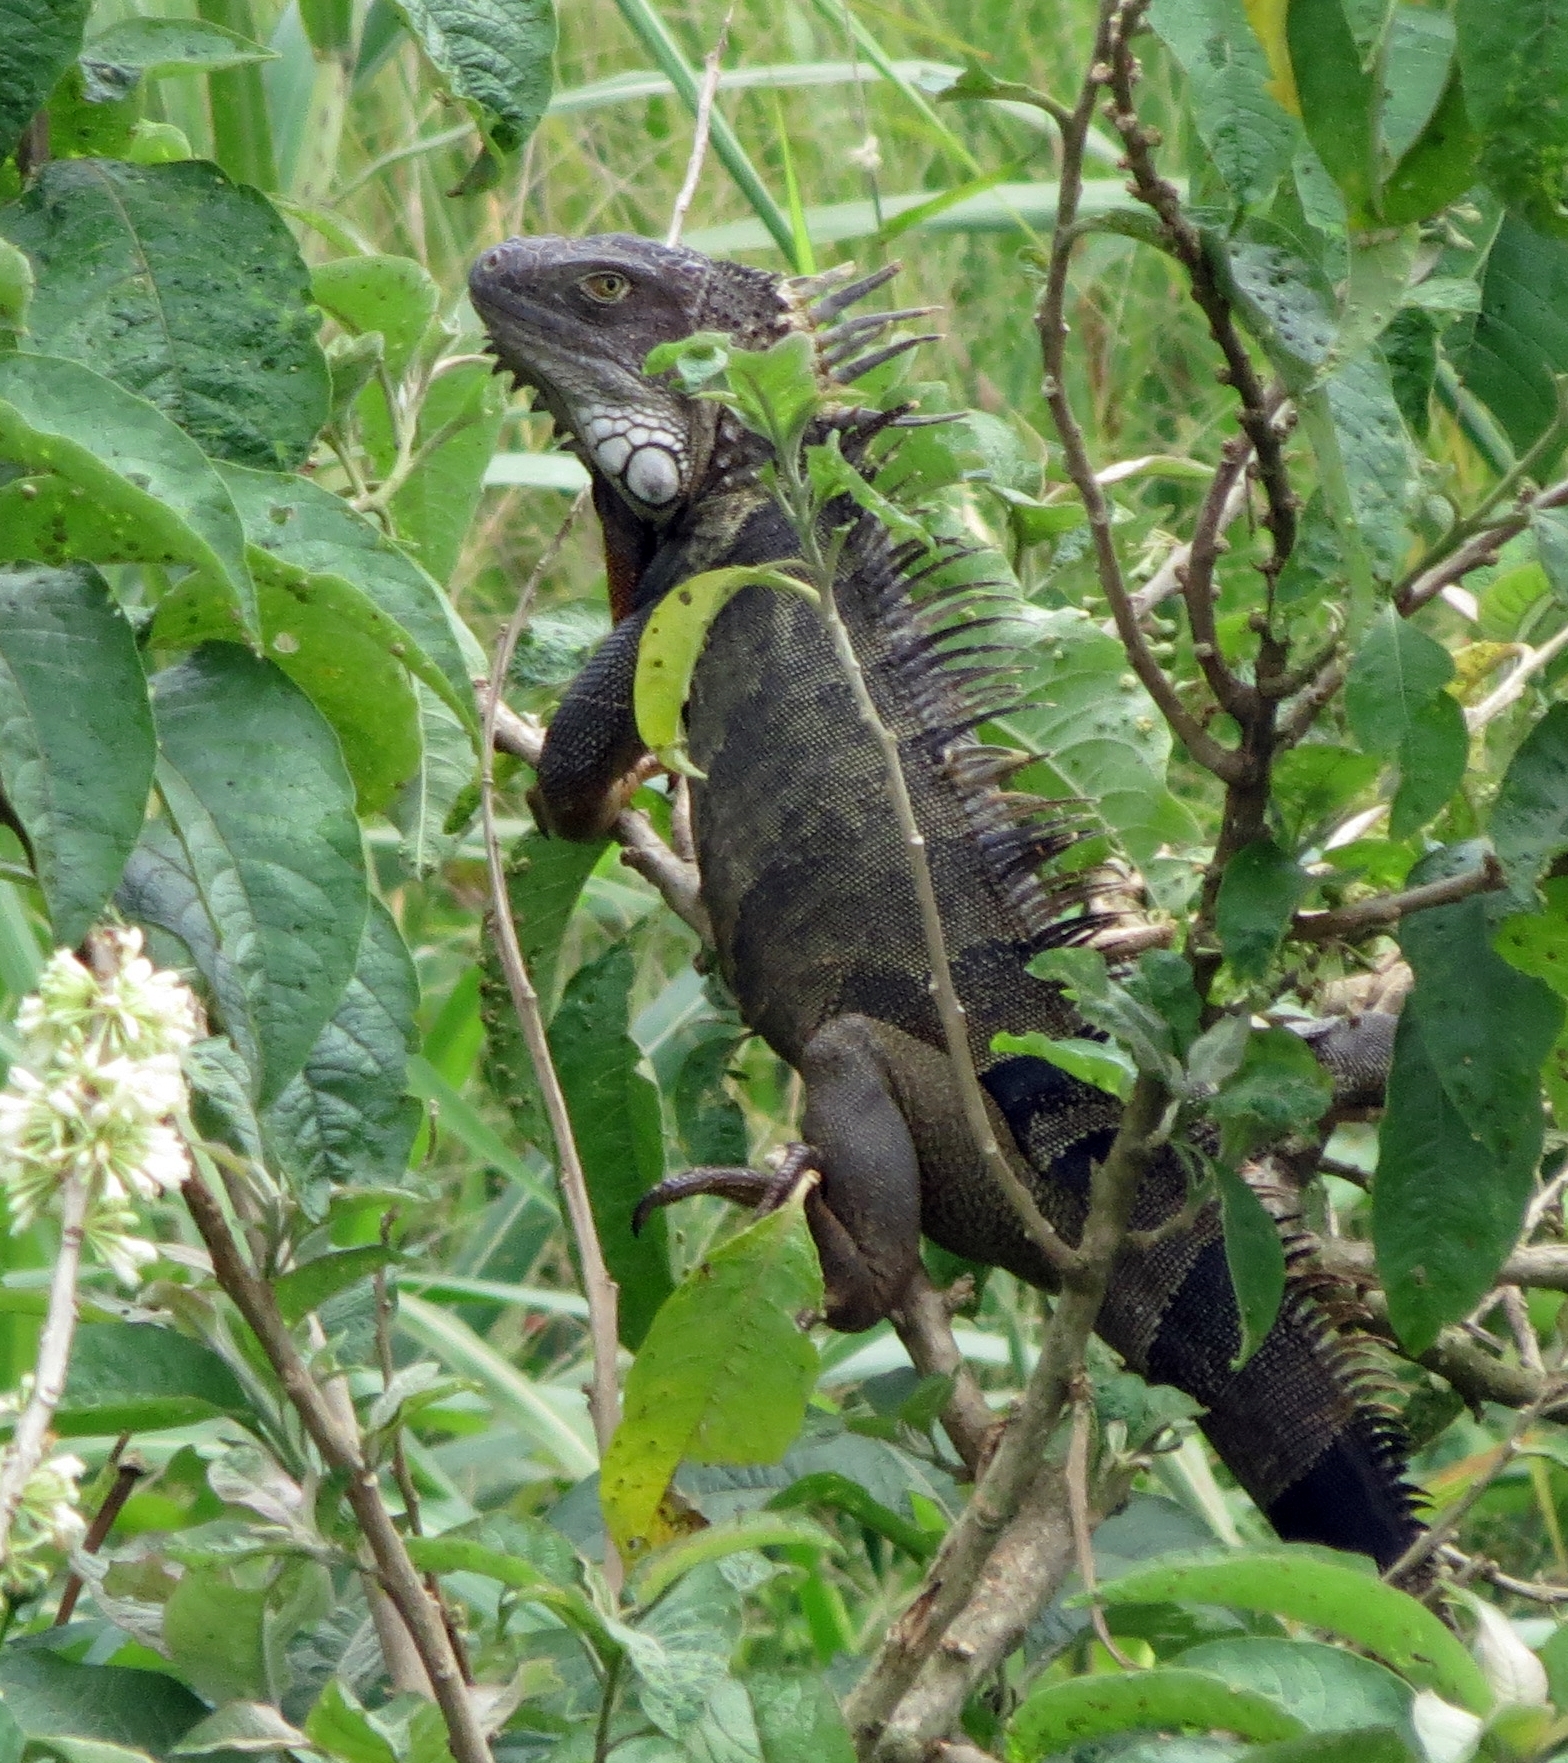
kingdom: Animalia
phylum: Chordata
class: Squamata
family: Iguanidae
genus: Iguana
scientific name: Iguana iguana
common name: Green iguana
